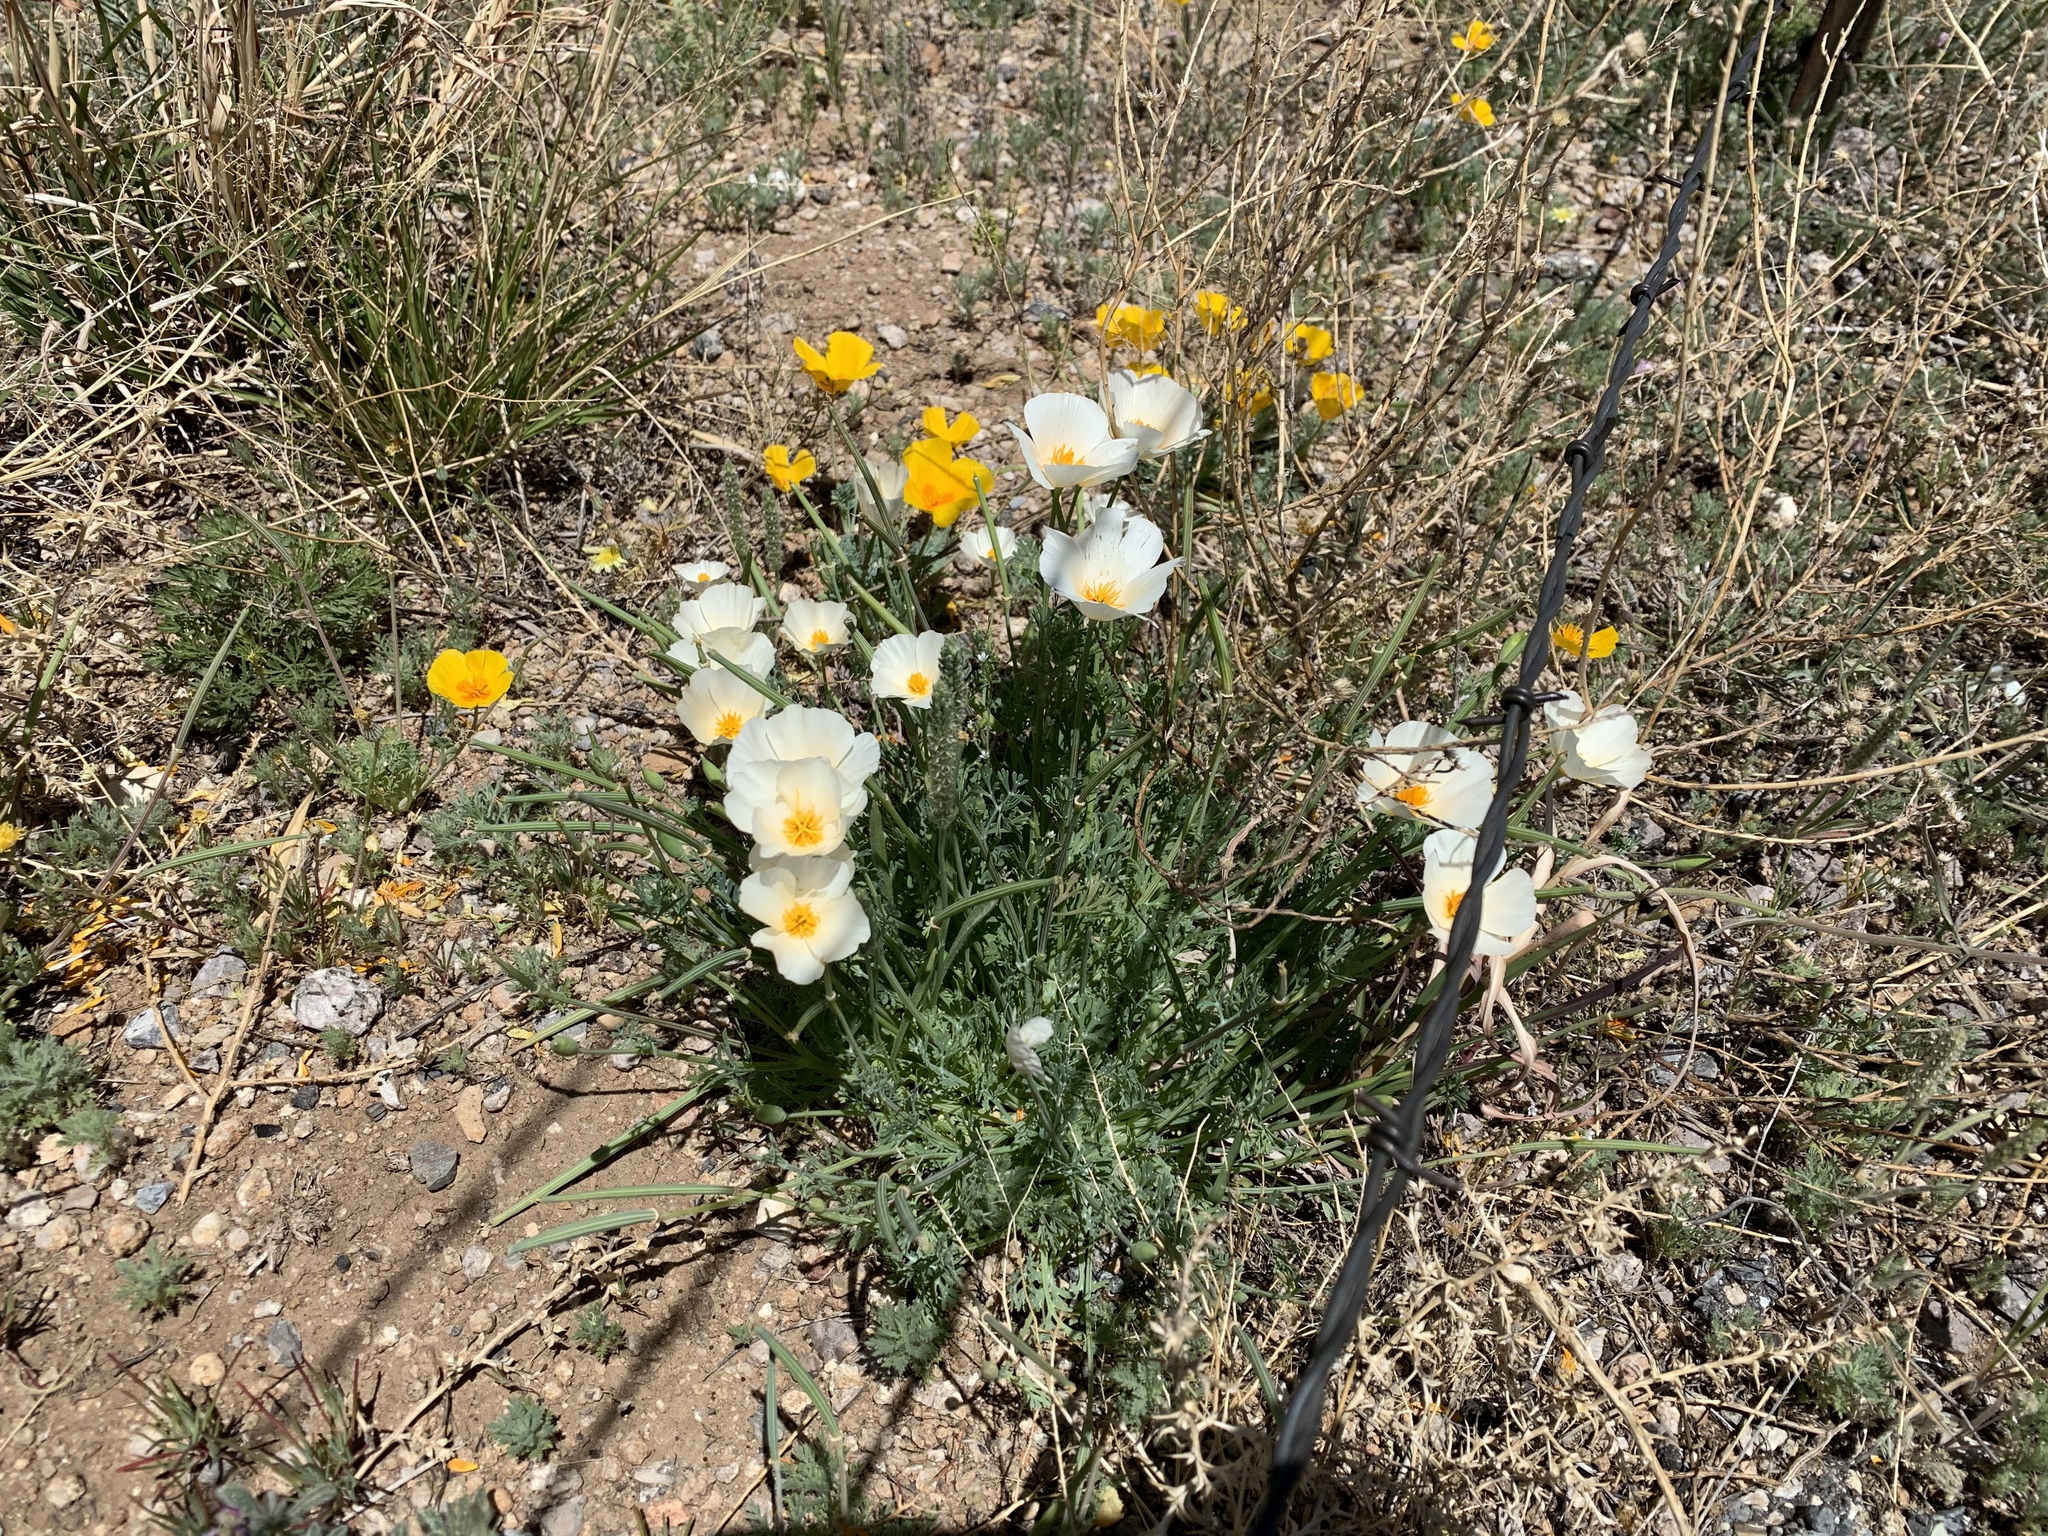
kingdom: Plantae
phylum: Tracheophyta
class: Magnoliopsida
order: Ranunculales
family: Papaveraceae
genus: Eschscholzia
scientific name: Eschscholzia californica
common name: California poppy
